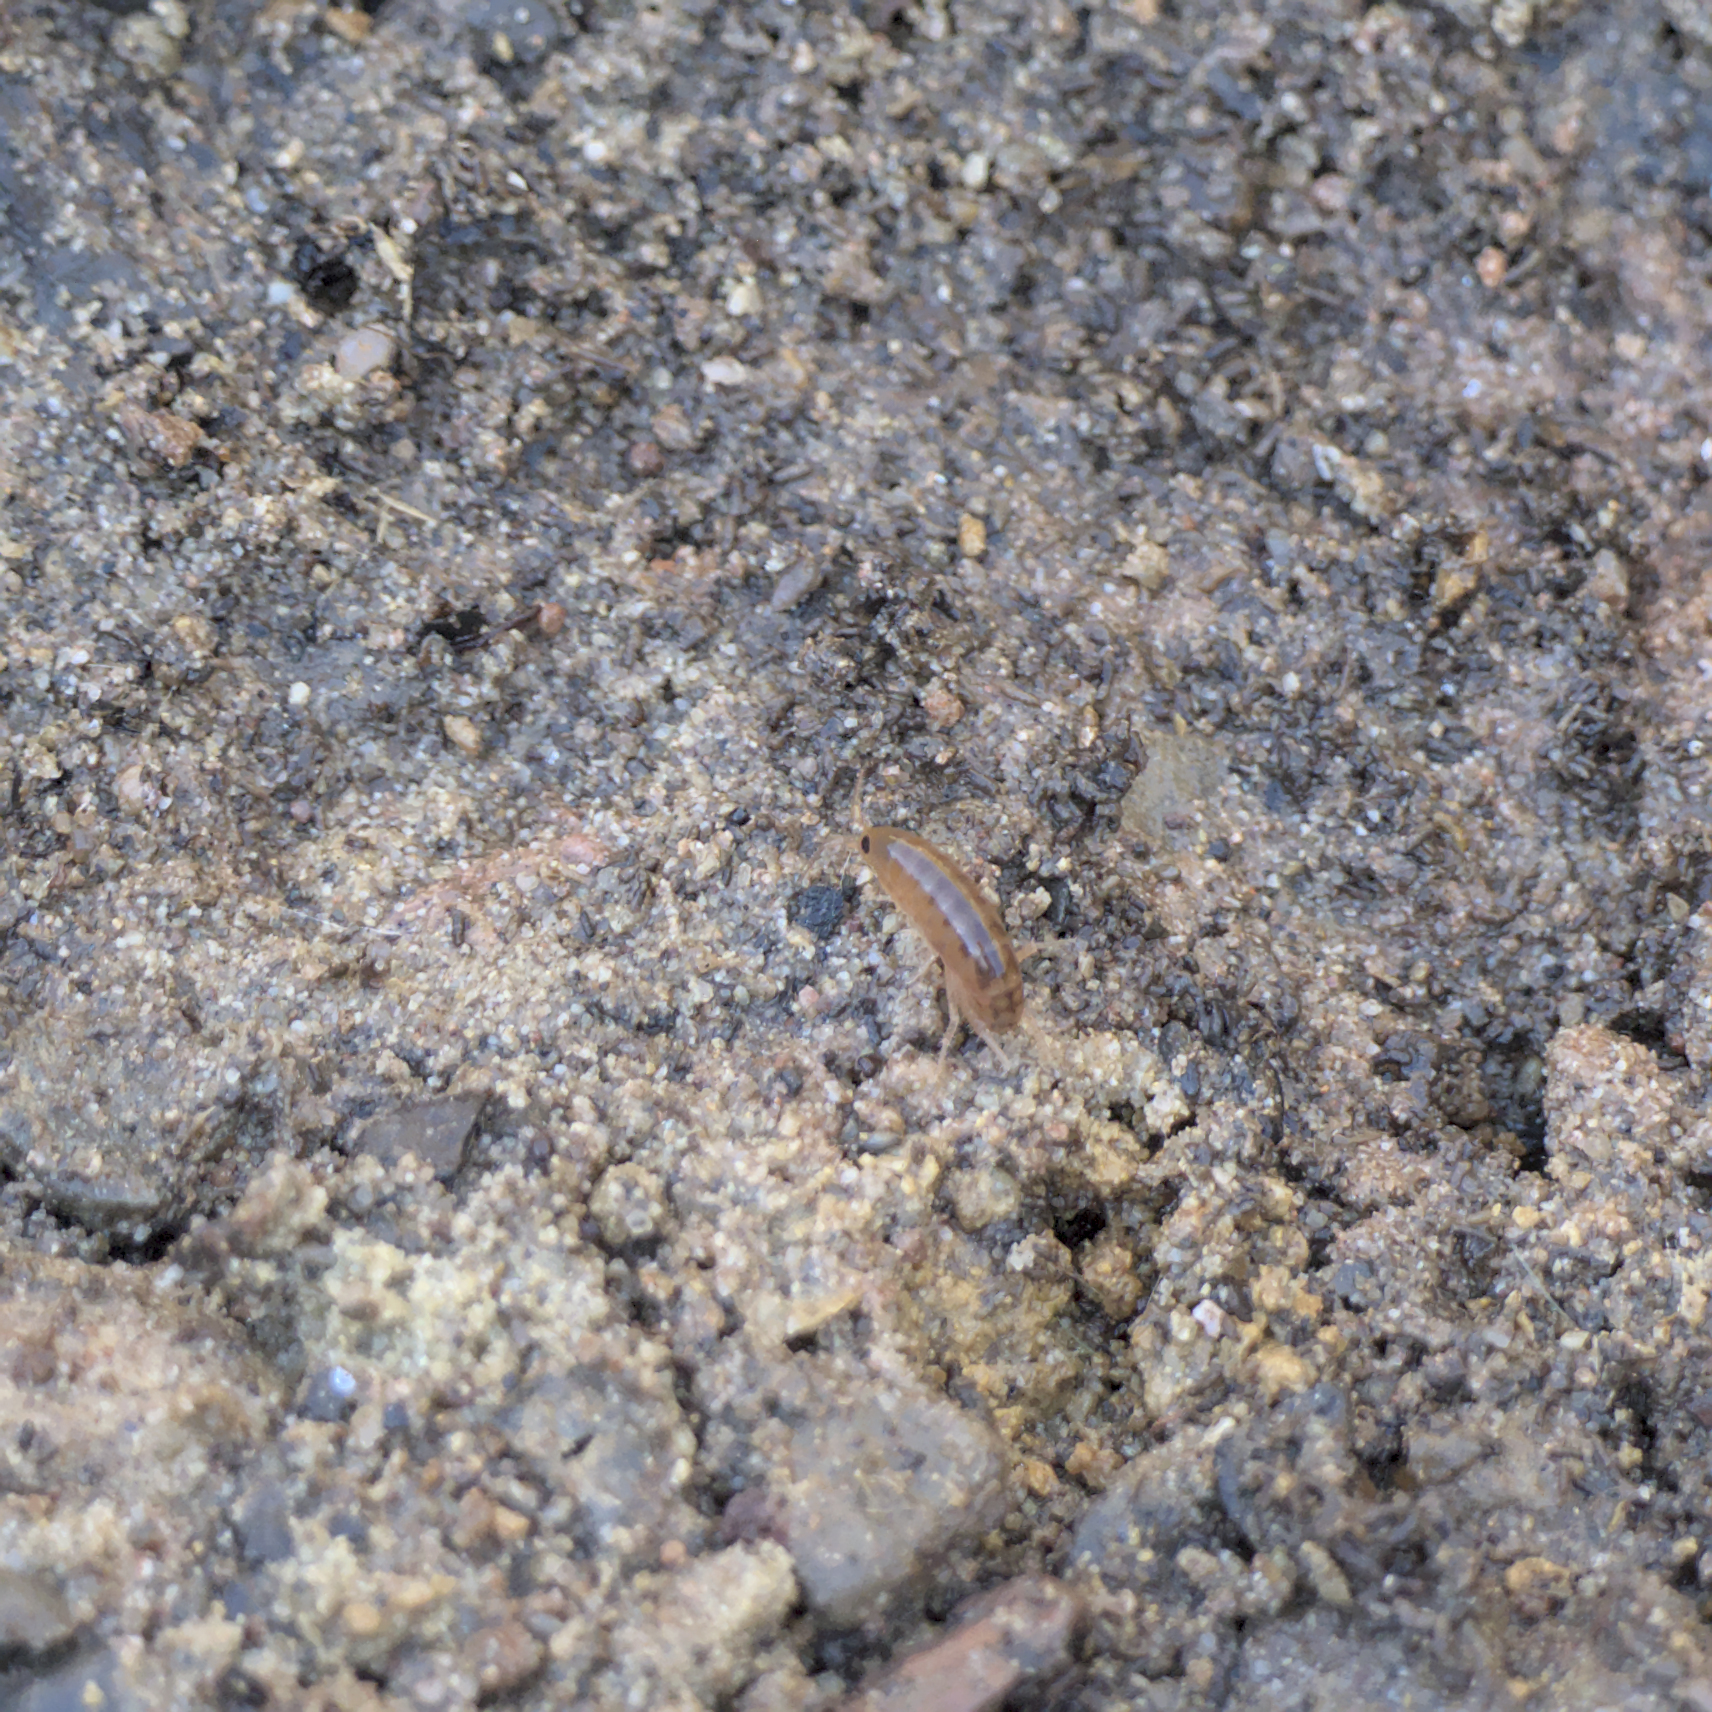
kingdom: Animalia
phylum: Arthropoda
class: Malacostraca
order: Amphipoda
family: Talitridae
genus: Traskorchestia
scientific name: Traskorchestia traskiana
